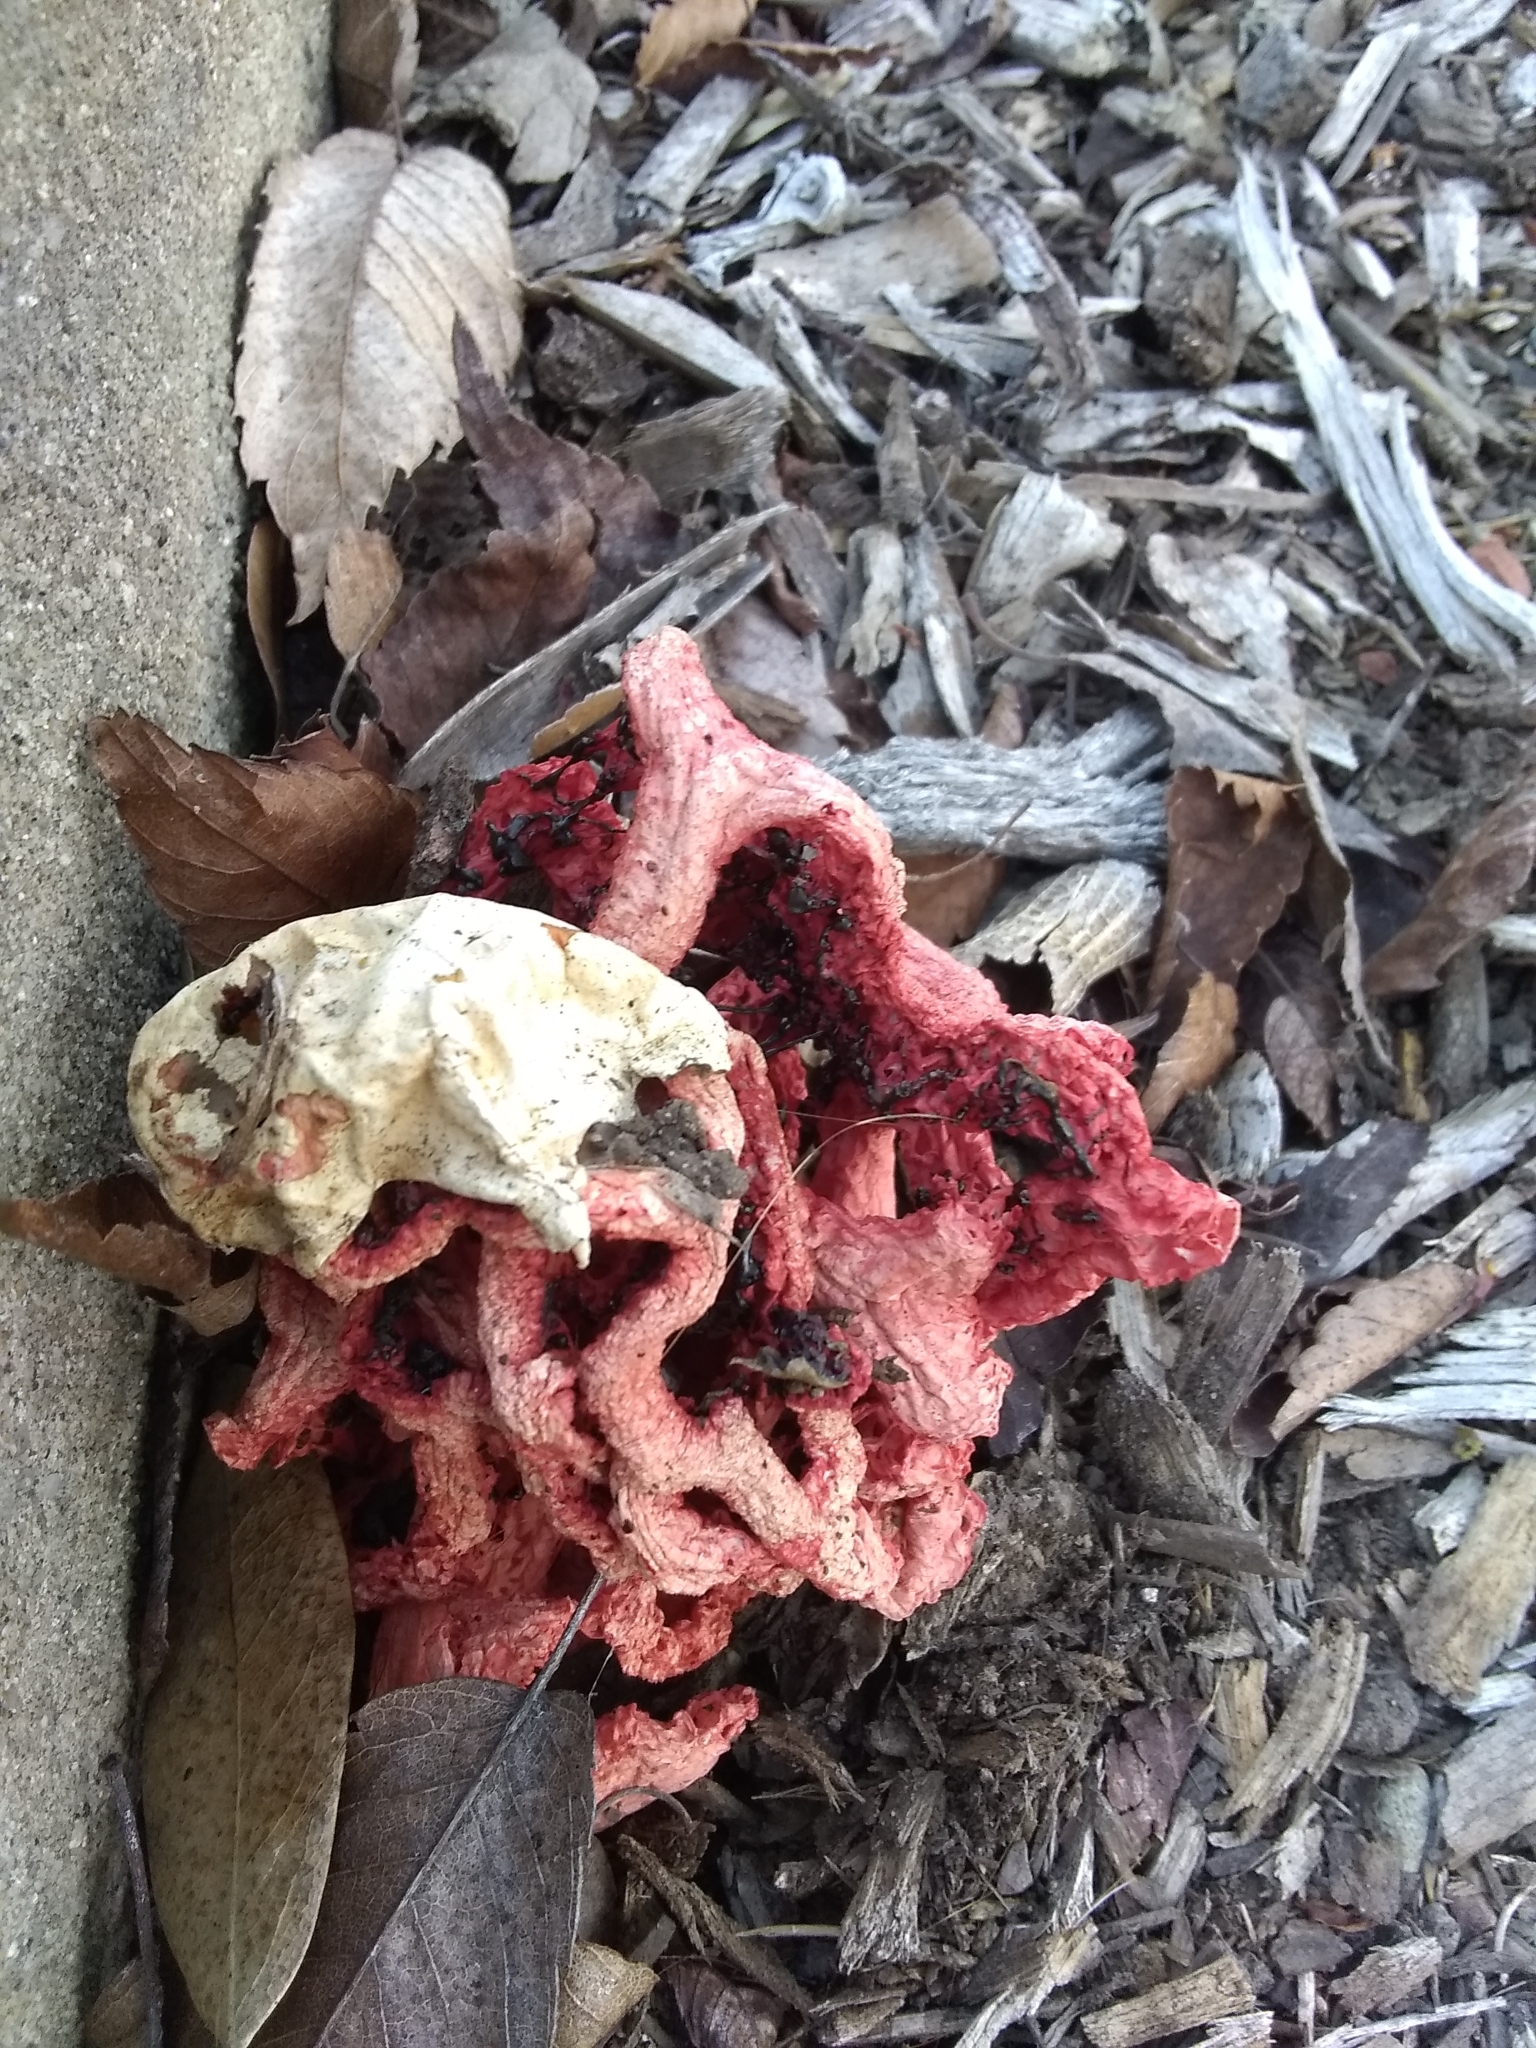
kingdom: Fungi
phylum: Basidiomycota
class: Agaricomycetes
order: Phallales
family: Phallaceae
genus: Clathrus
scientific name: Clathrus ruber
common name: Red cage
